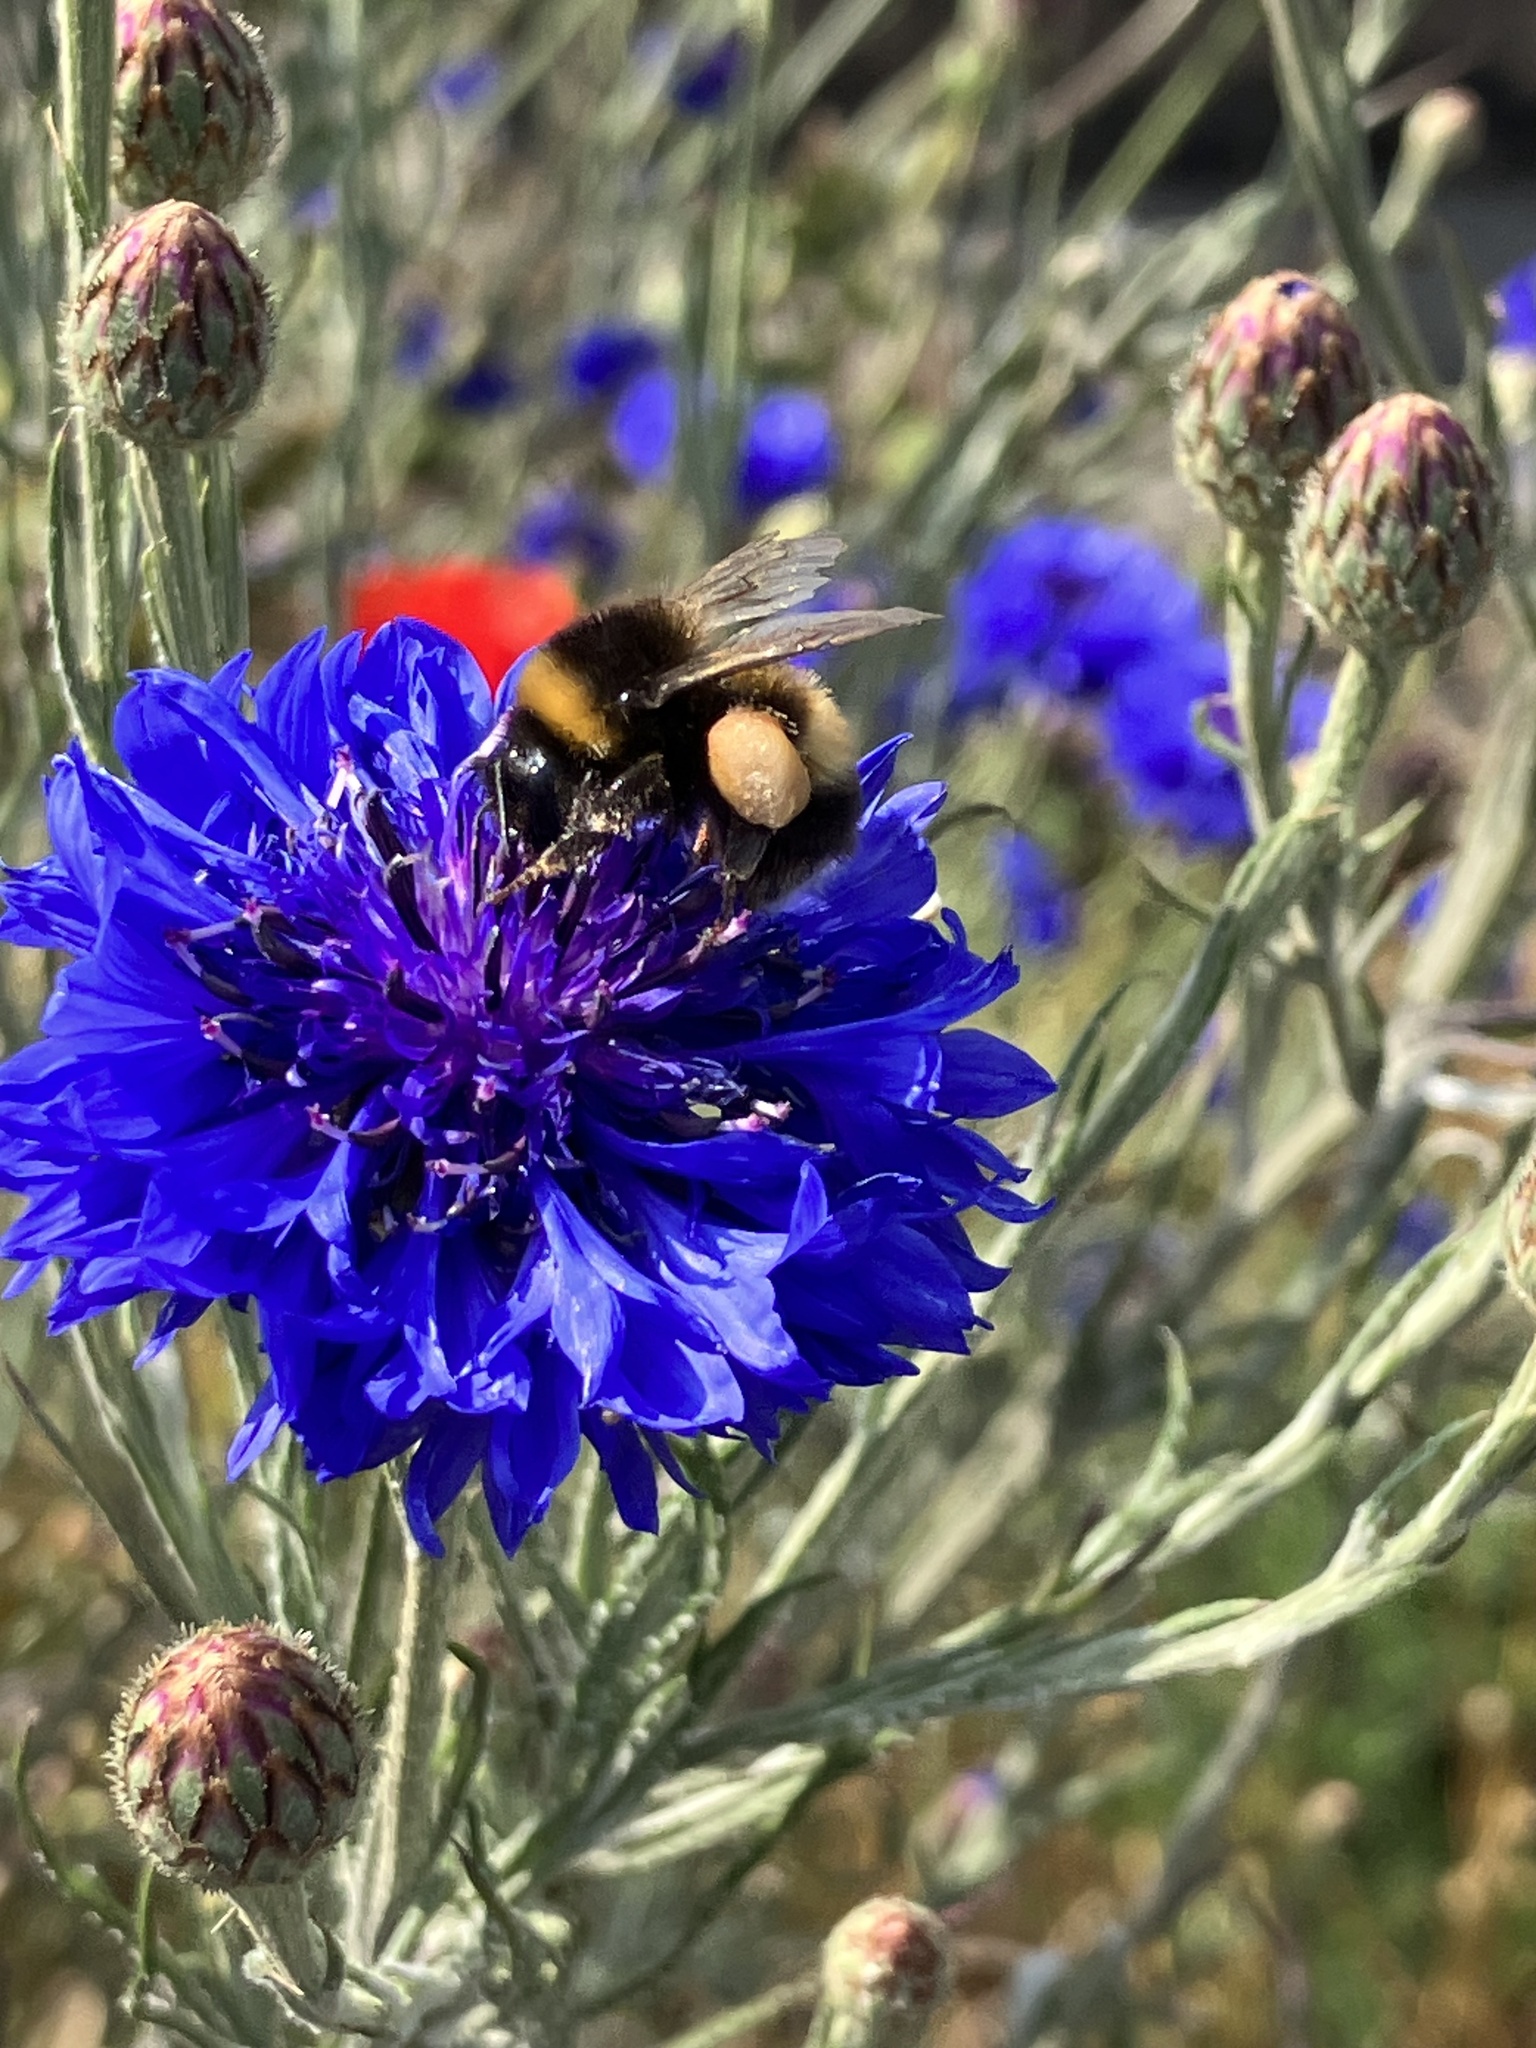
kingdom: Animalia
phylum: Arthropoda
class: Insecta
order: Hymenoptera
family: Apidae
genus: Bombus
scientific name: Bombus
